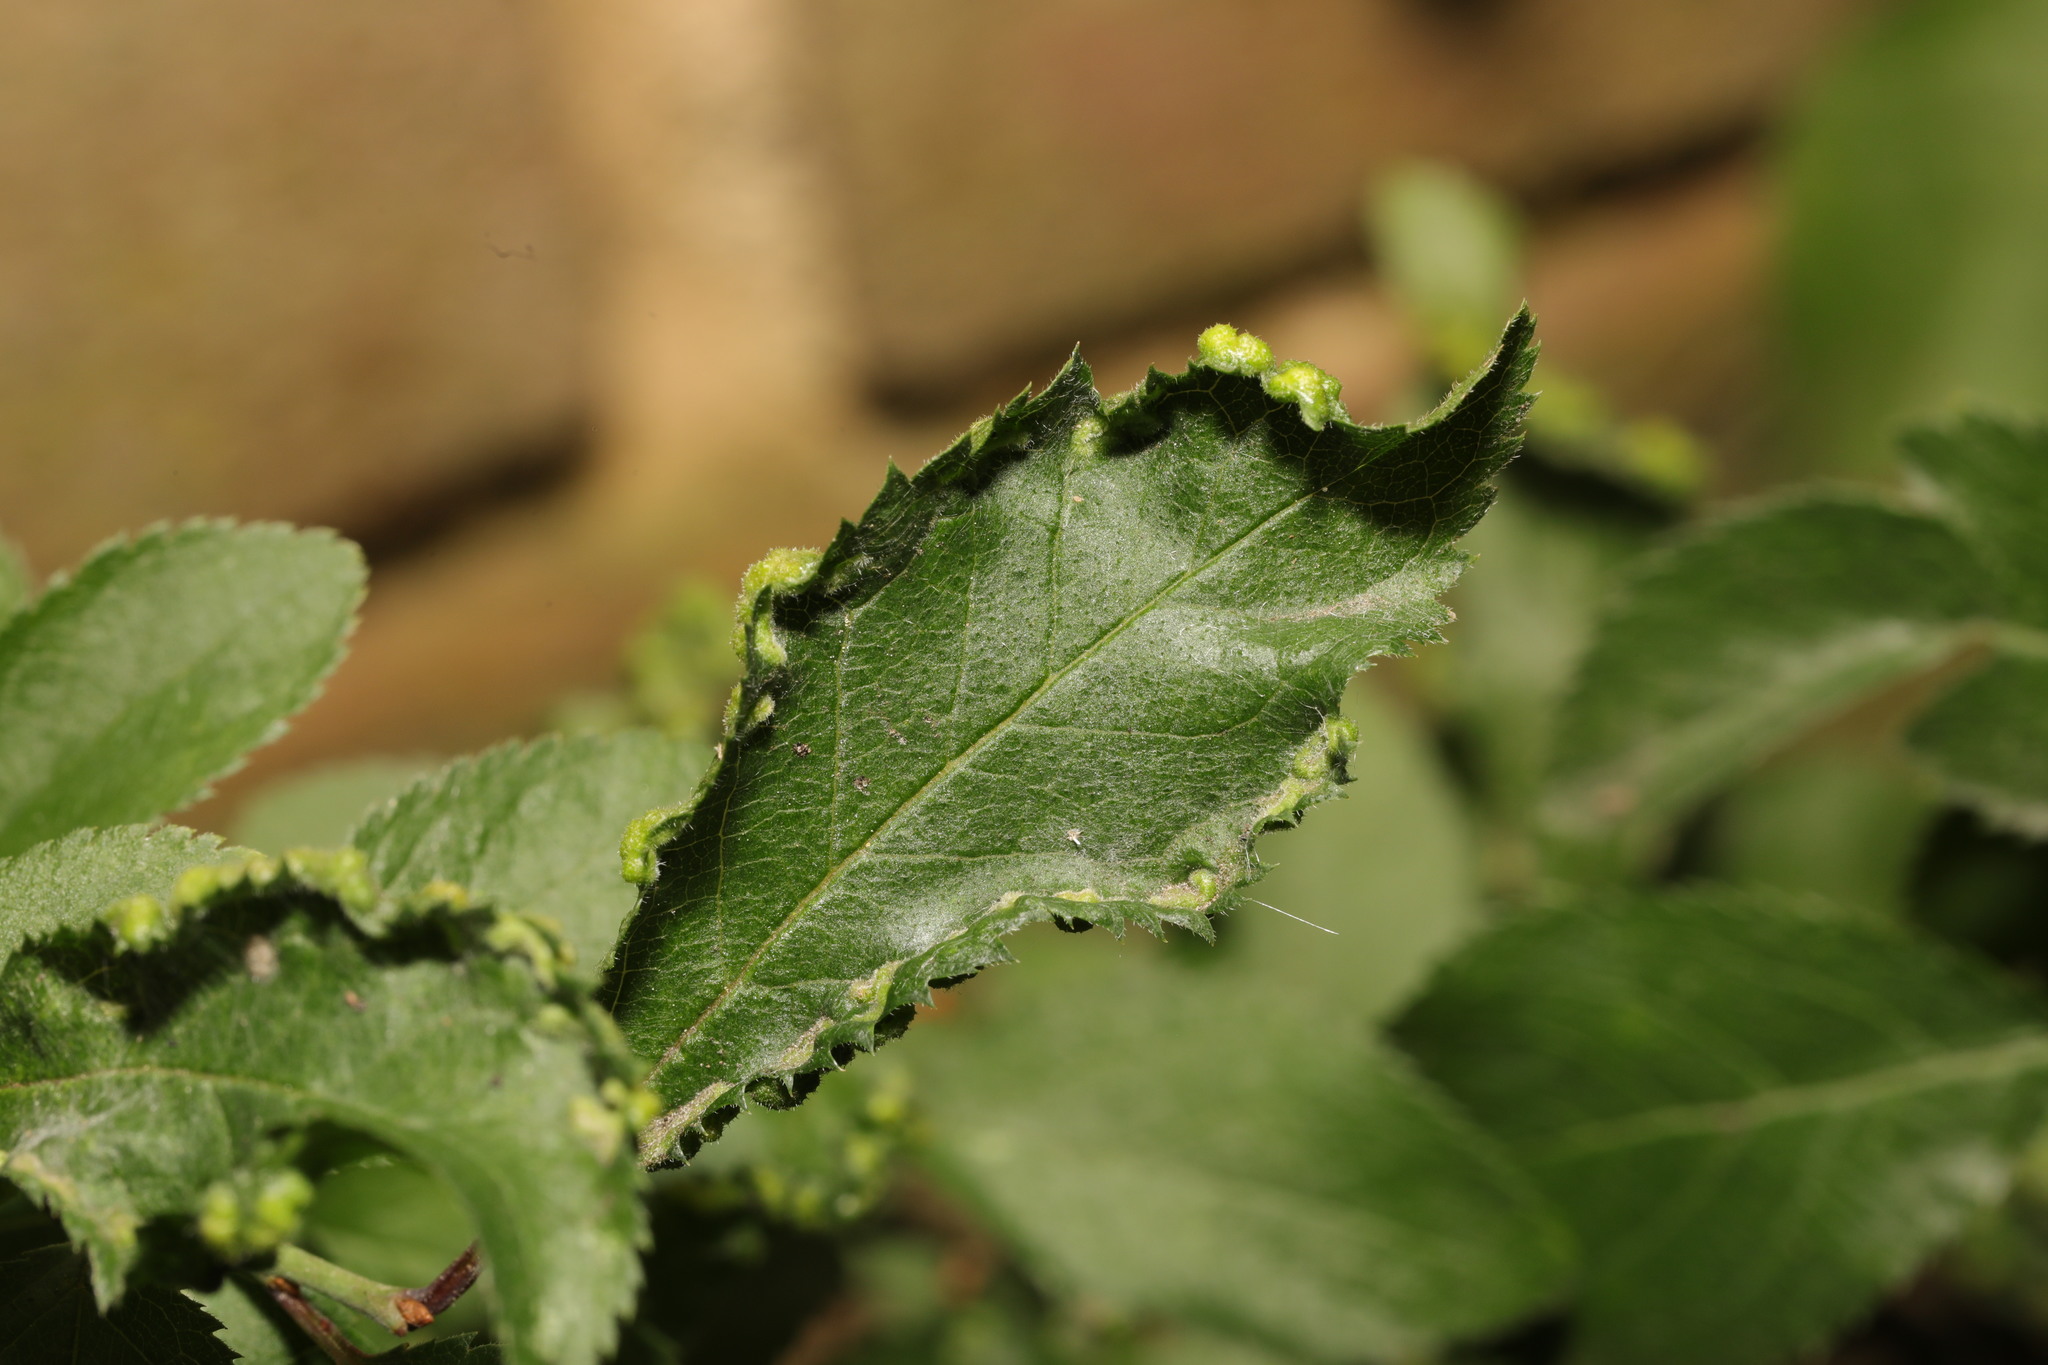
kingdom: Animalia
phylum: Arthropoda
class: Arachnida
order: Trombidiformes
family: Eriophyidae
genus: Eriophyes
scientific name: Eriophyes similis
